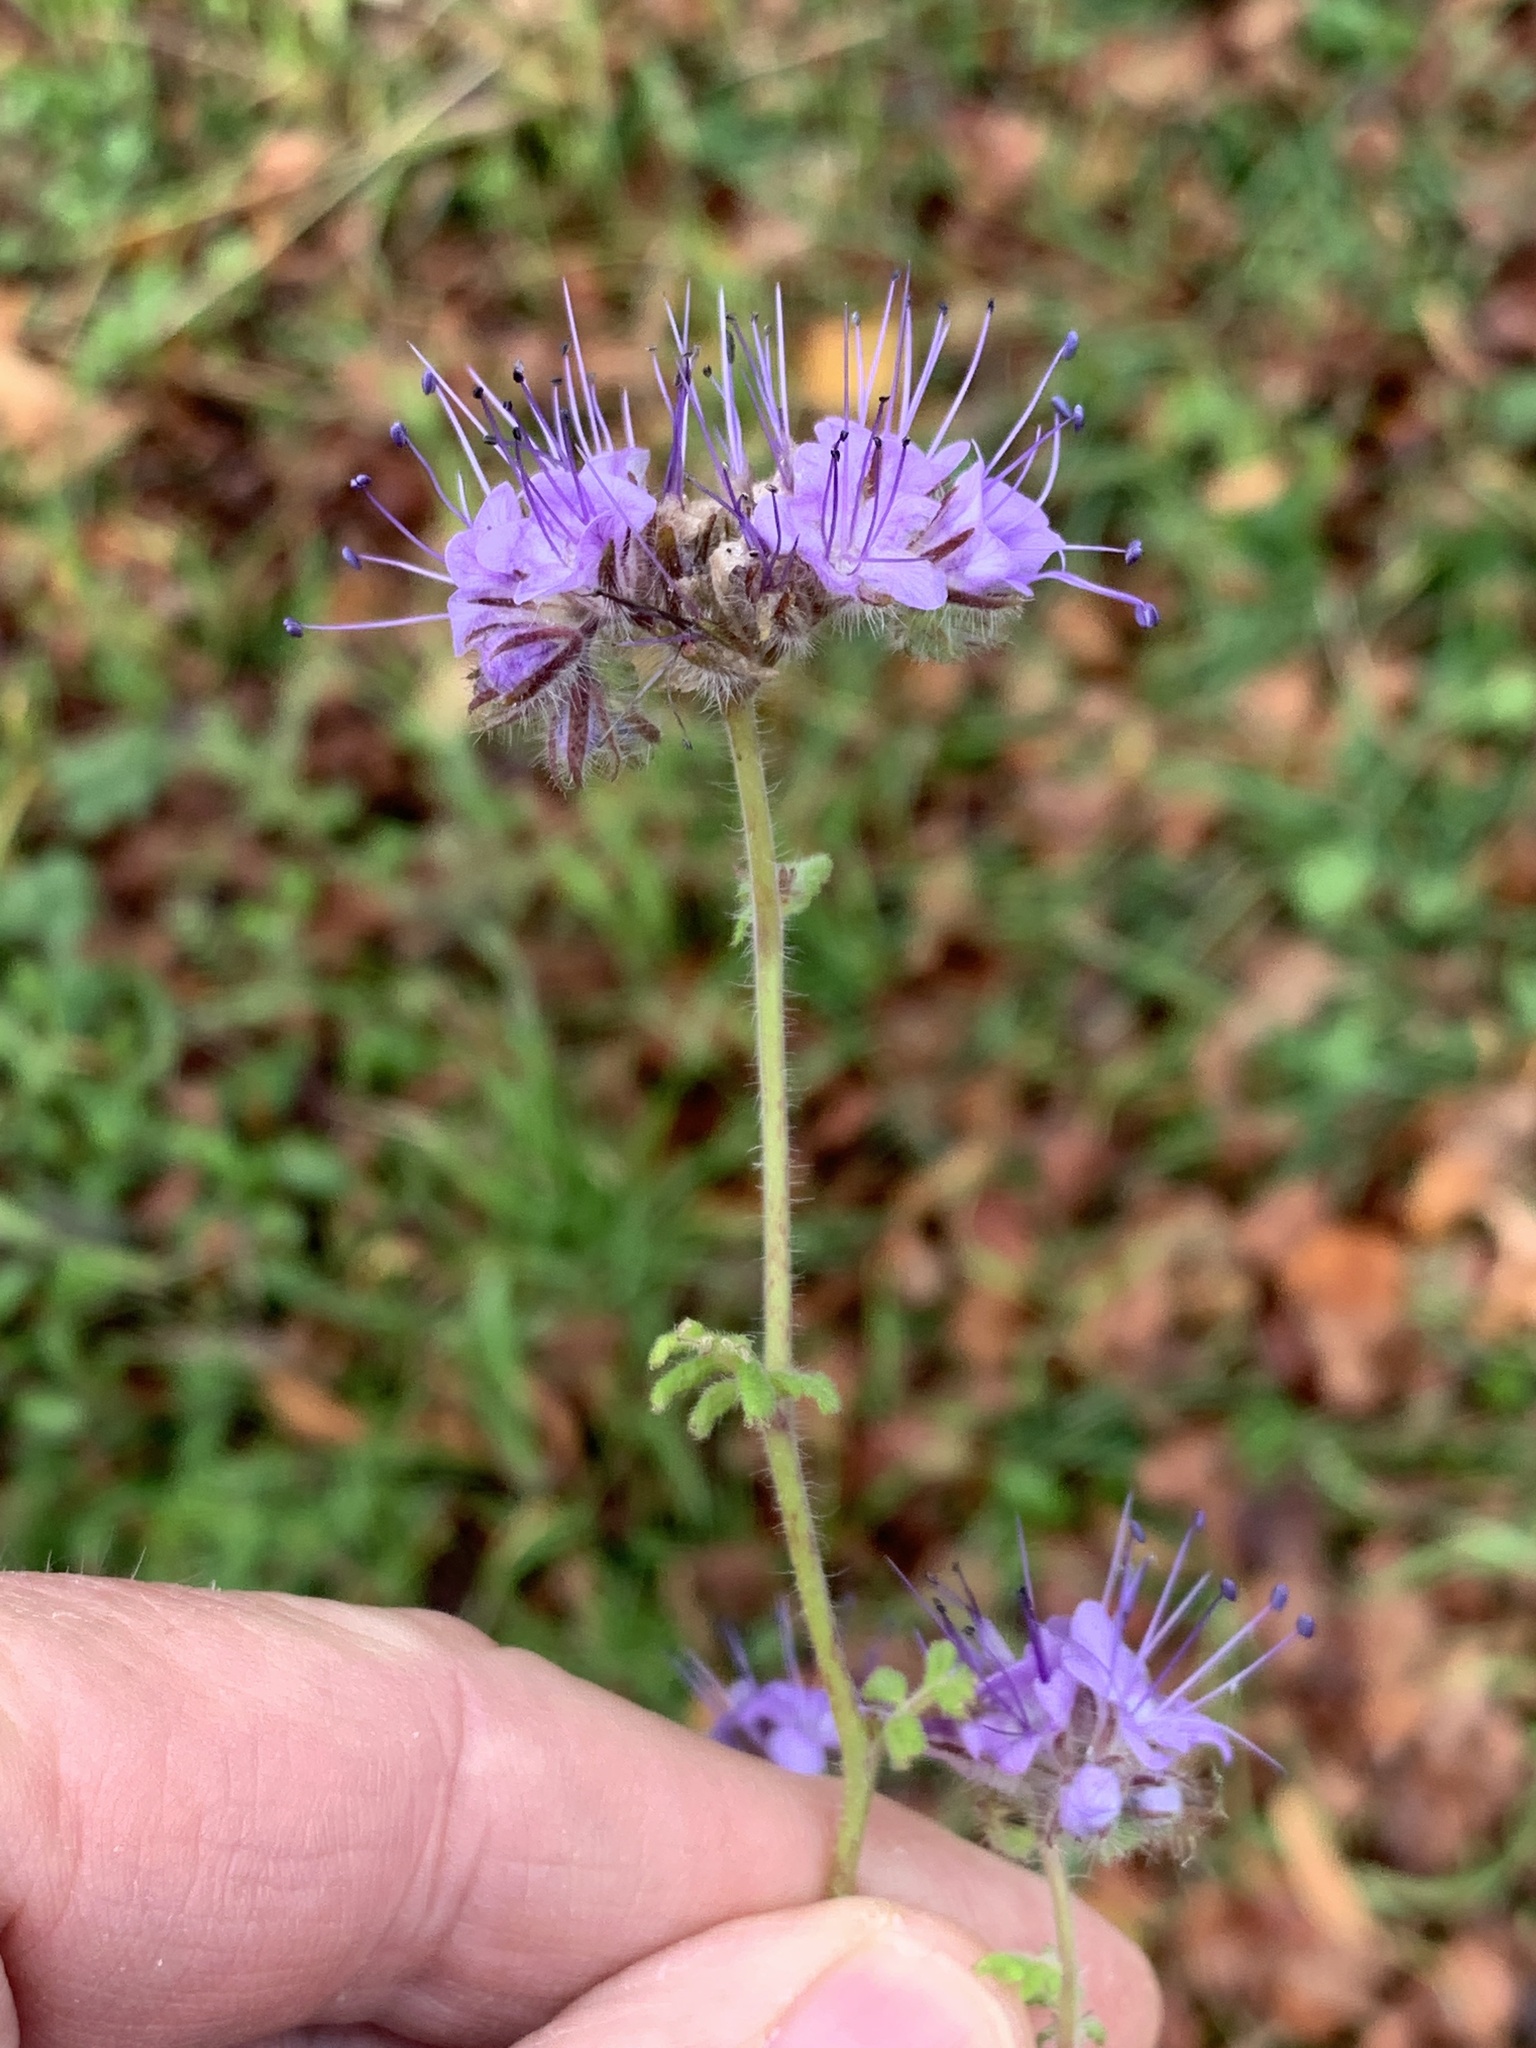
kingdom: Plantae
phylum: Tracheophyta
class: Magnoliopsida
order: Boraginales
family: Hydrophyllaceae
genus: Phacelia
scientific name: Phacelia tanacetifolia
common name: Phacelia
